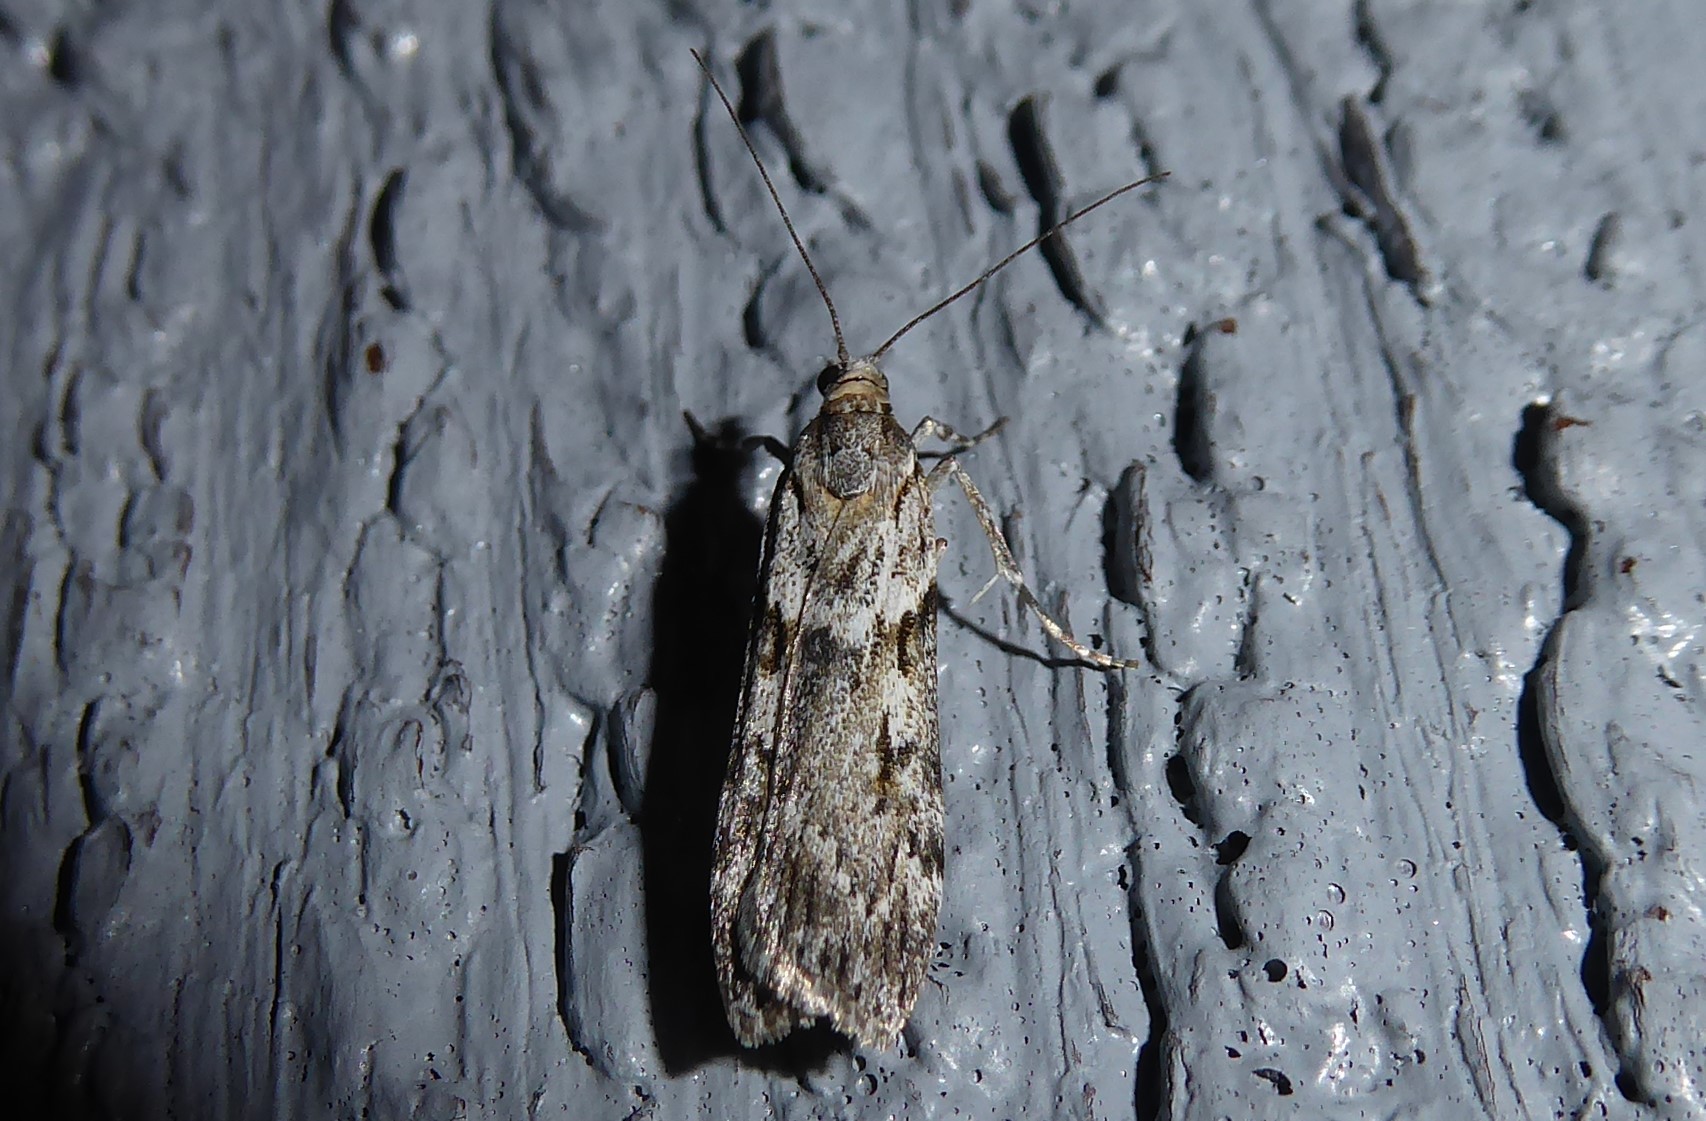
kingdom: Animalia
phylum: Arthropoda
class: Insecta
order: Lepidoptera
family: Crambidae
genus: Scoparia
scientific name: Scoparia halopis
